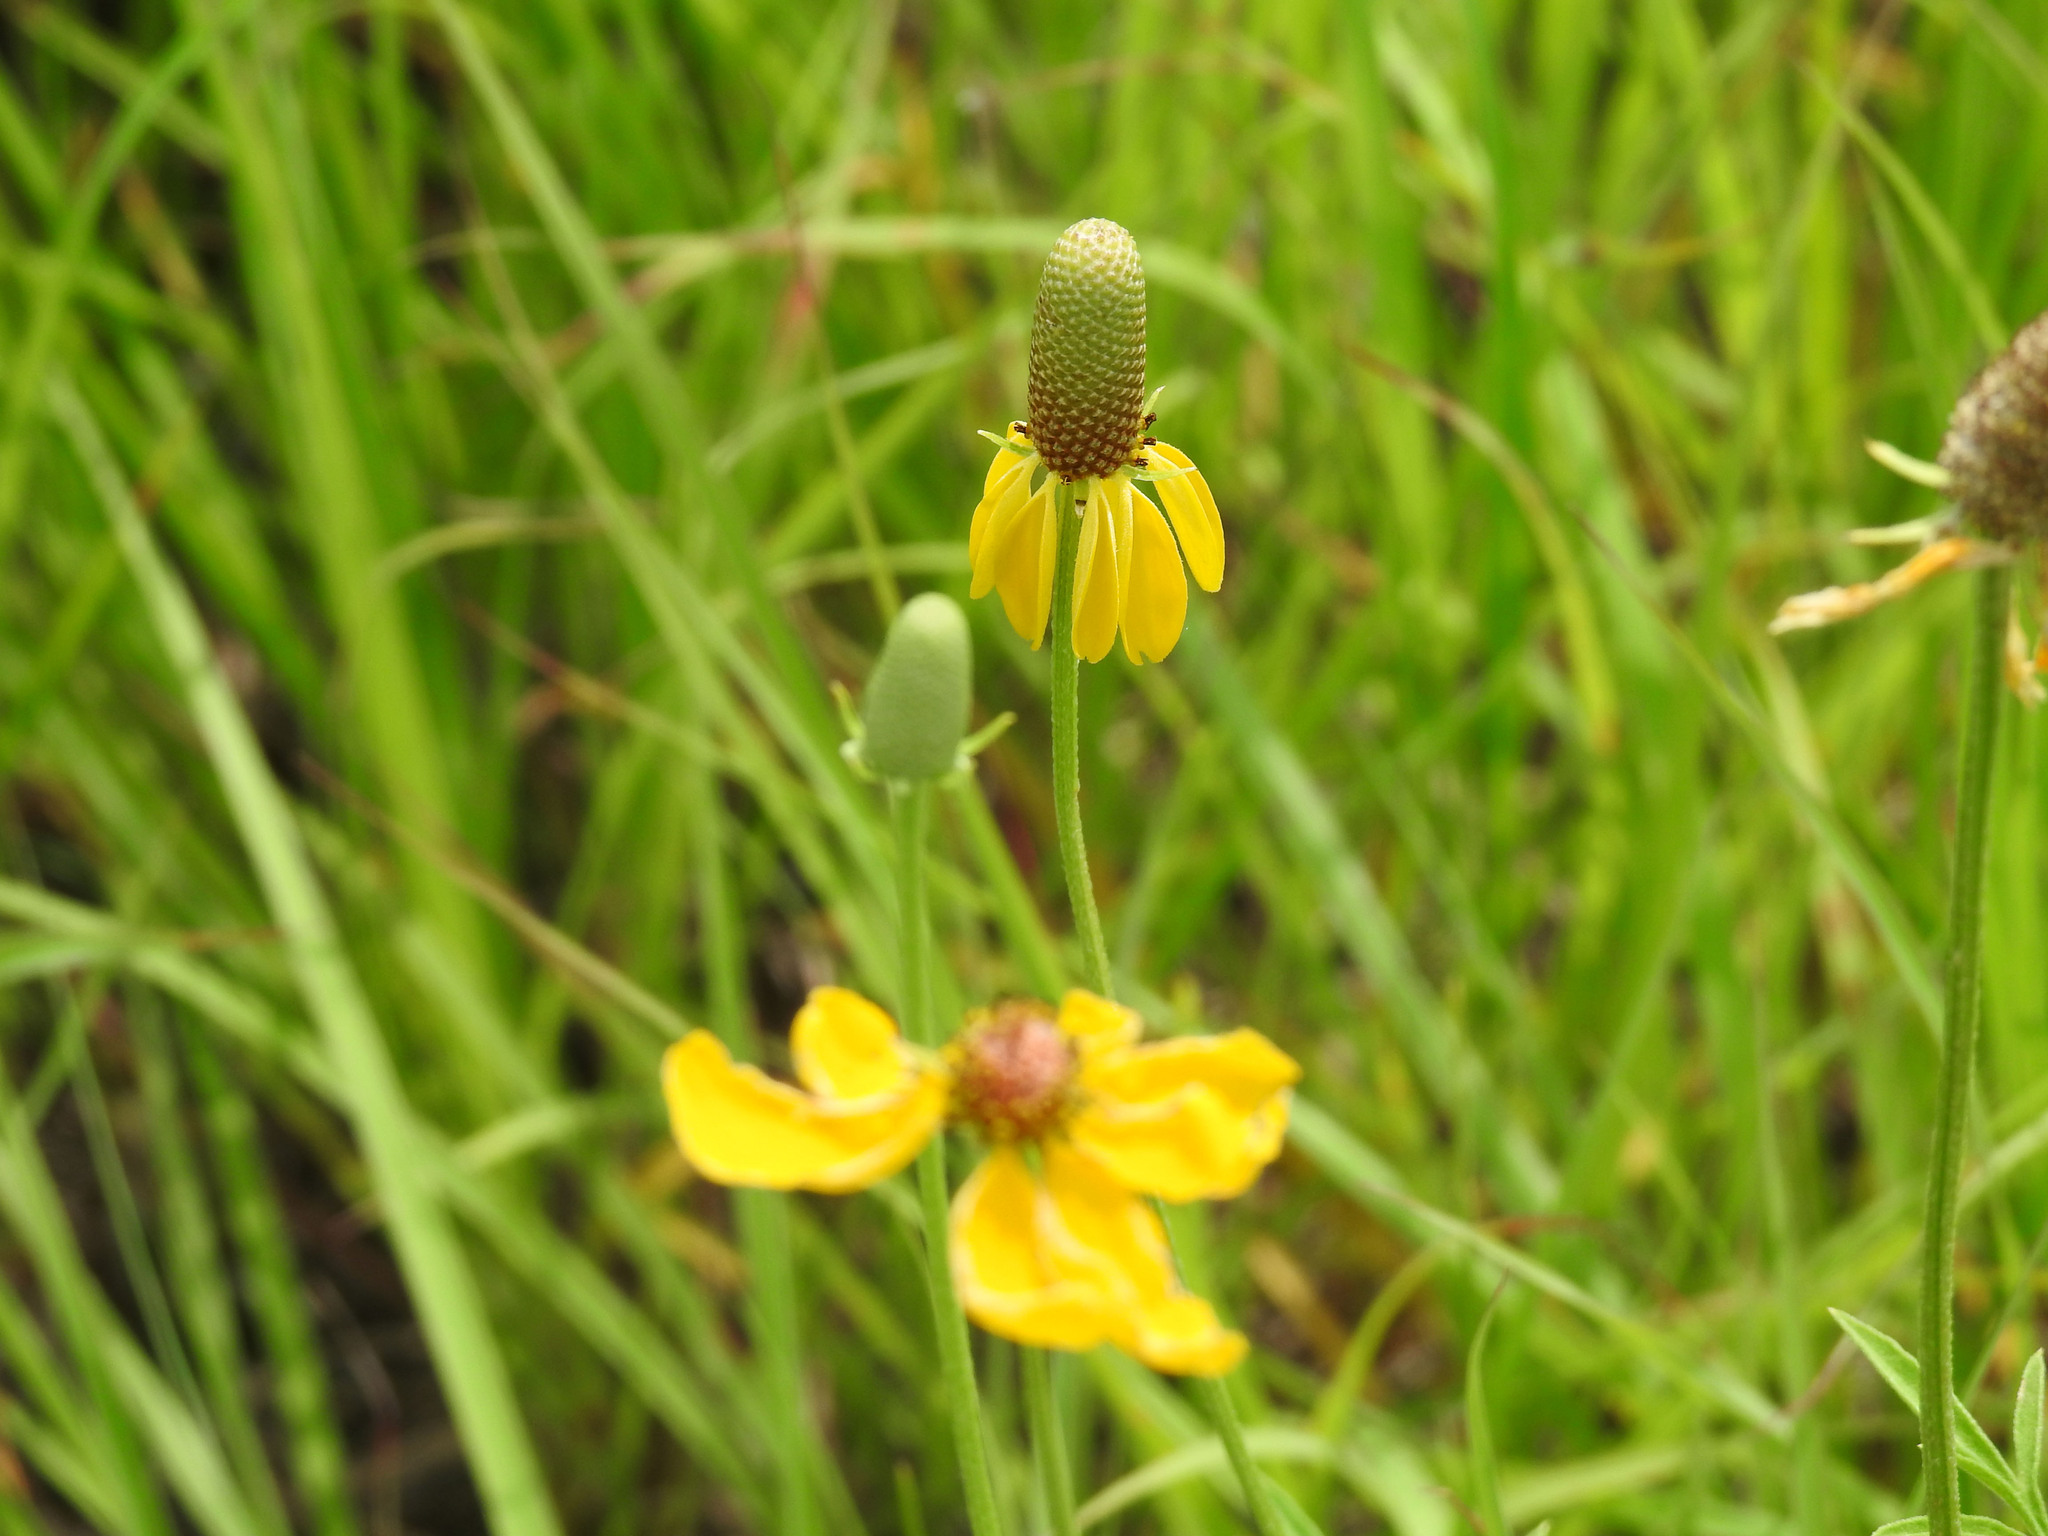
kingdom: Plantae
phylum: Tracheophyta
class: Magnoliopsida
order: Asterales
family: Asteraceae
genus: Ratibida
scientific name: Ratibida columnifera
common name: Prairie coneflower
